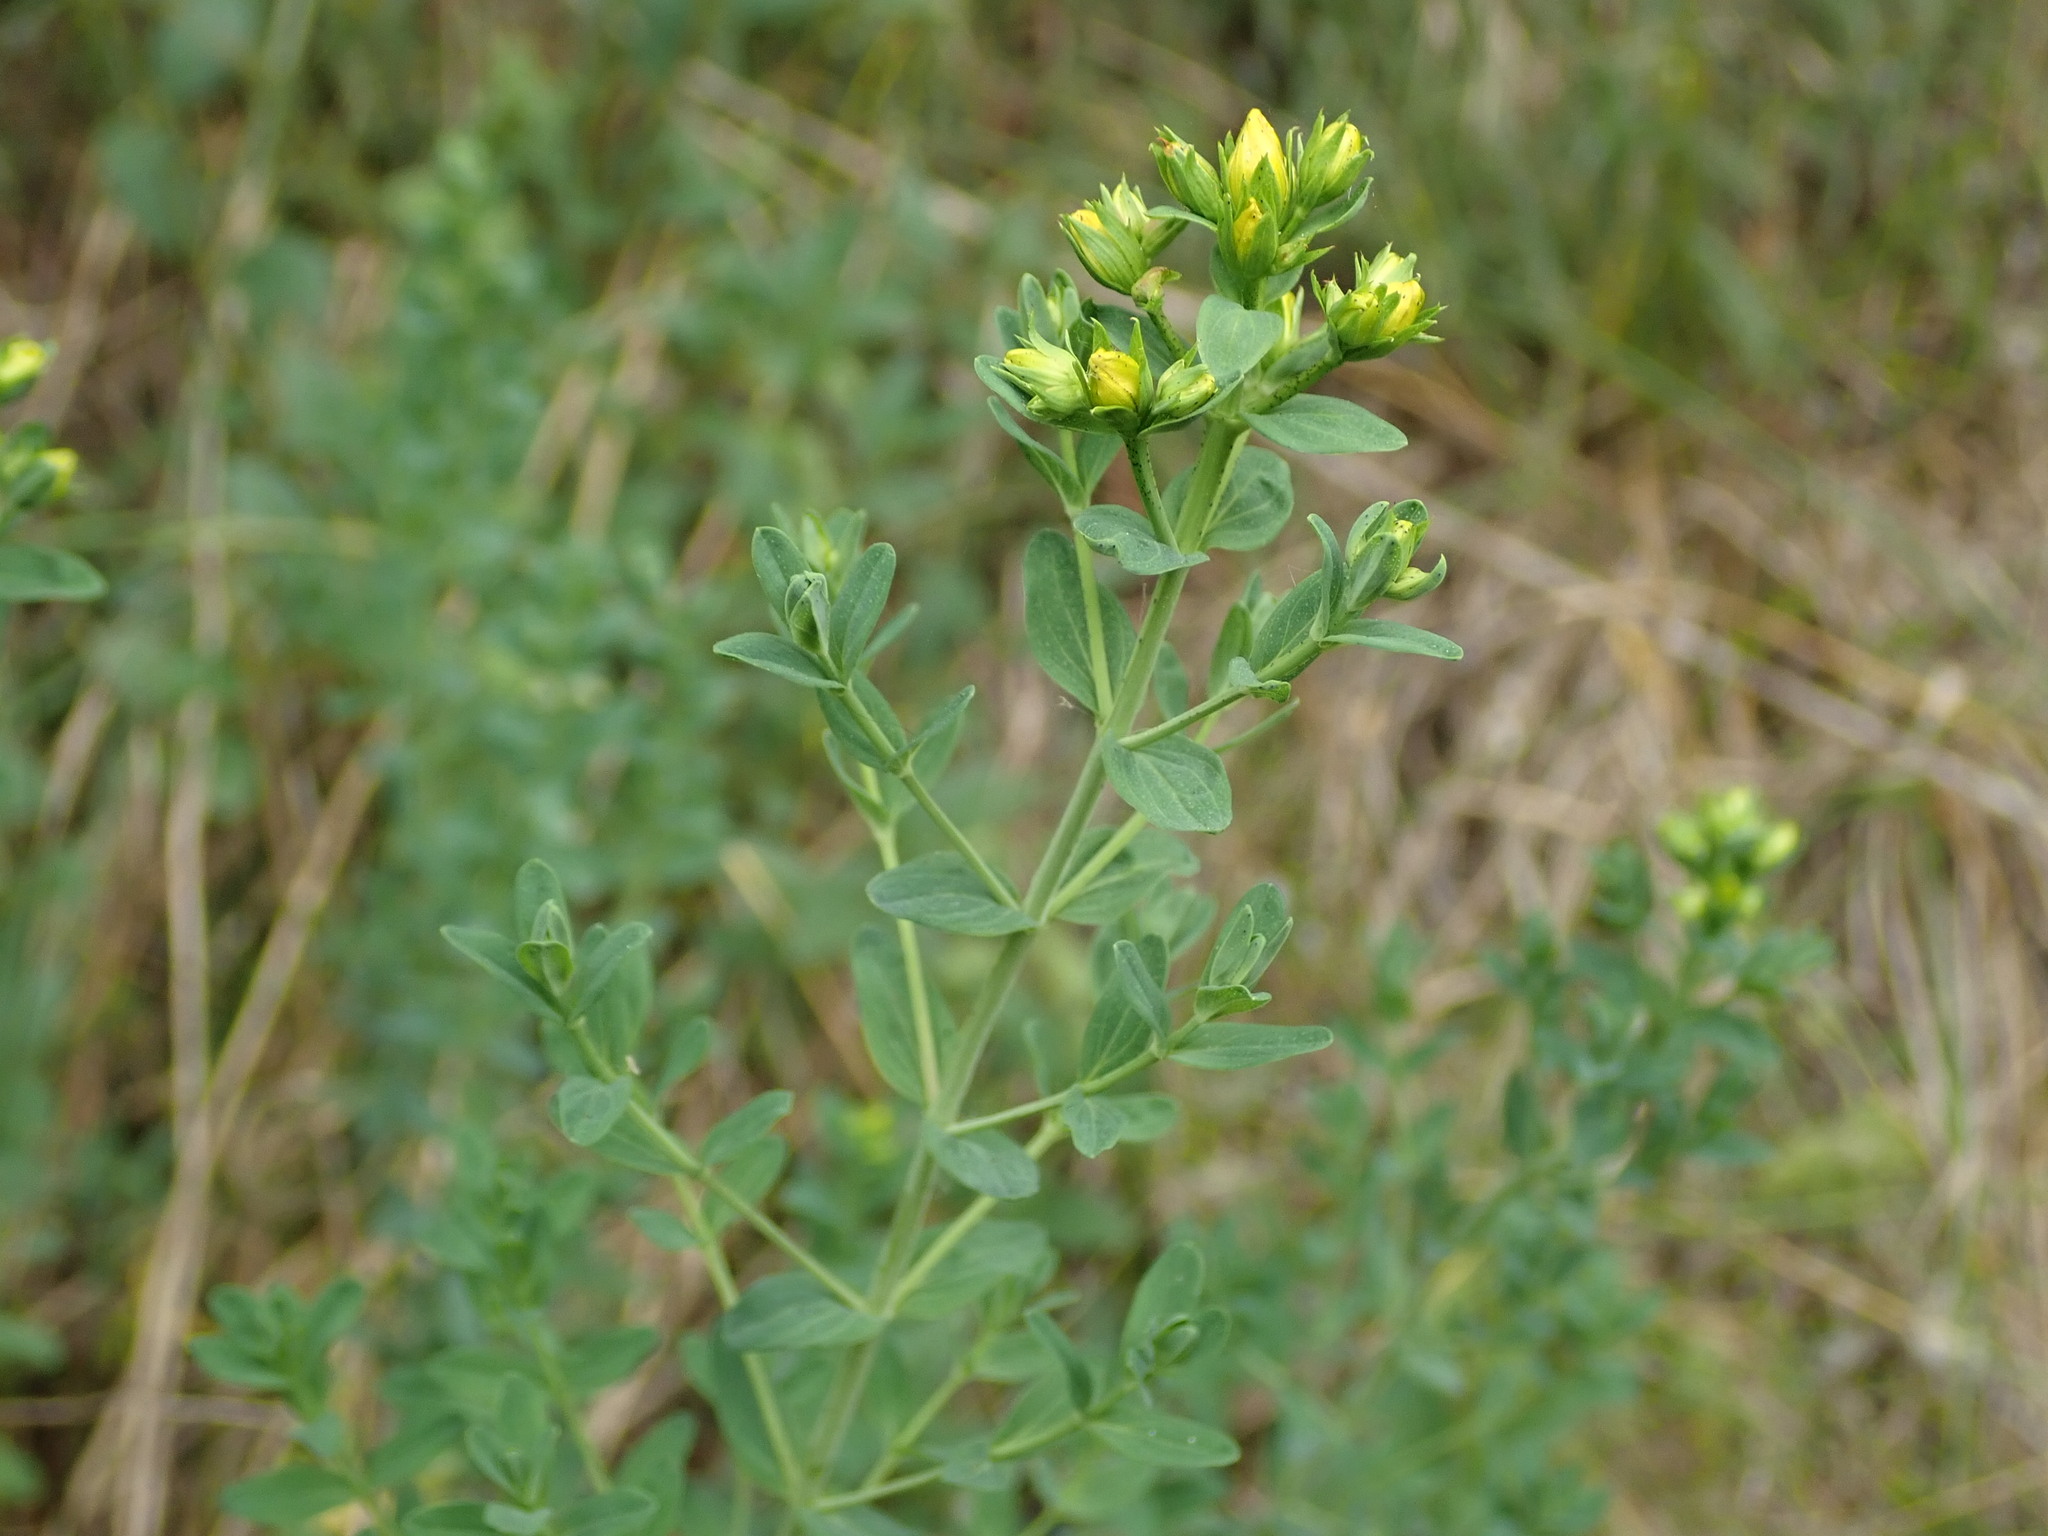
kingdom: Plantae
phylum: Tracheophyta
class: Magnoliopsida
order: Malpighiales
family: Hypericaceae
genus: Hypericum
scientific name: Hypericum perforatum
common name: Common st. johnswort
